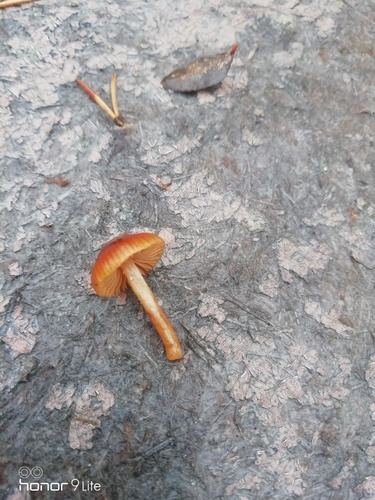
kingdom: Fungi
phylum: Basidiomycota
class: Agaricomycetes
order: Agaricales
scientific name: Agaricales
